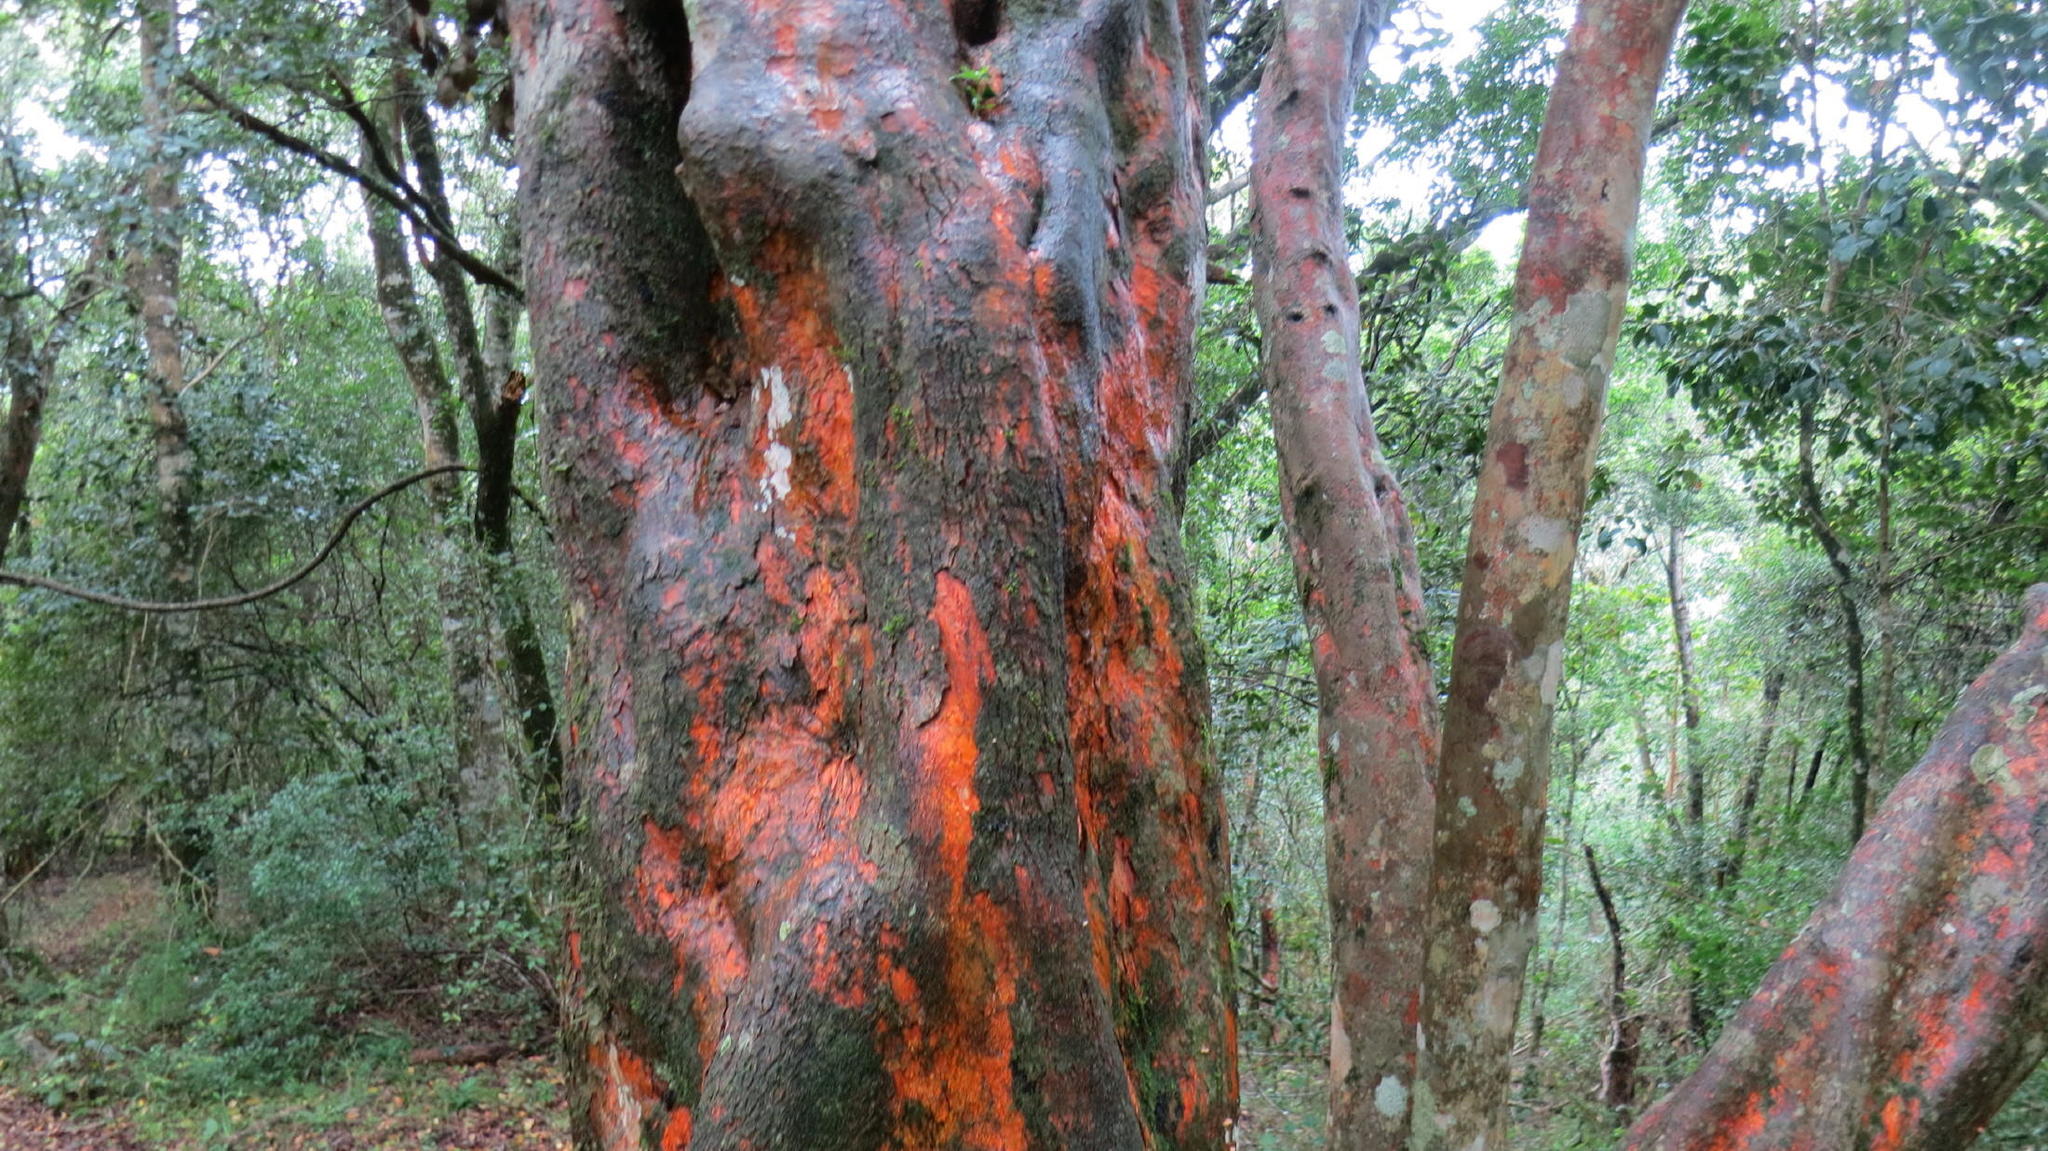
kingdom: Plantae
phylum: Tracheophyta
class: Magnoliopsida
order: Celastrales
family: Celastraceae
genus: Cassine
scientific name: Cassine peragua
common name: Cape saffron
